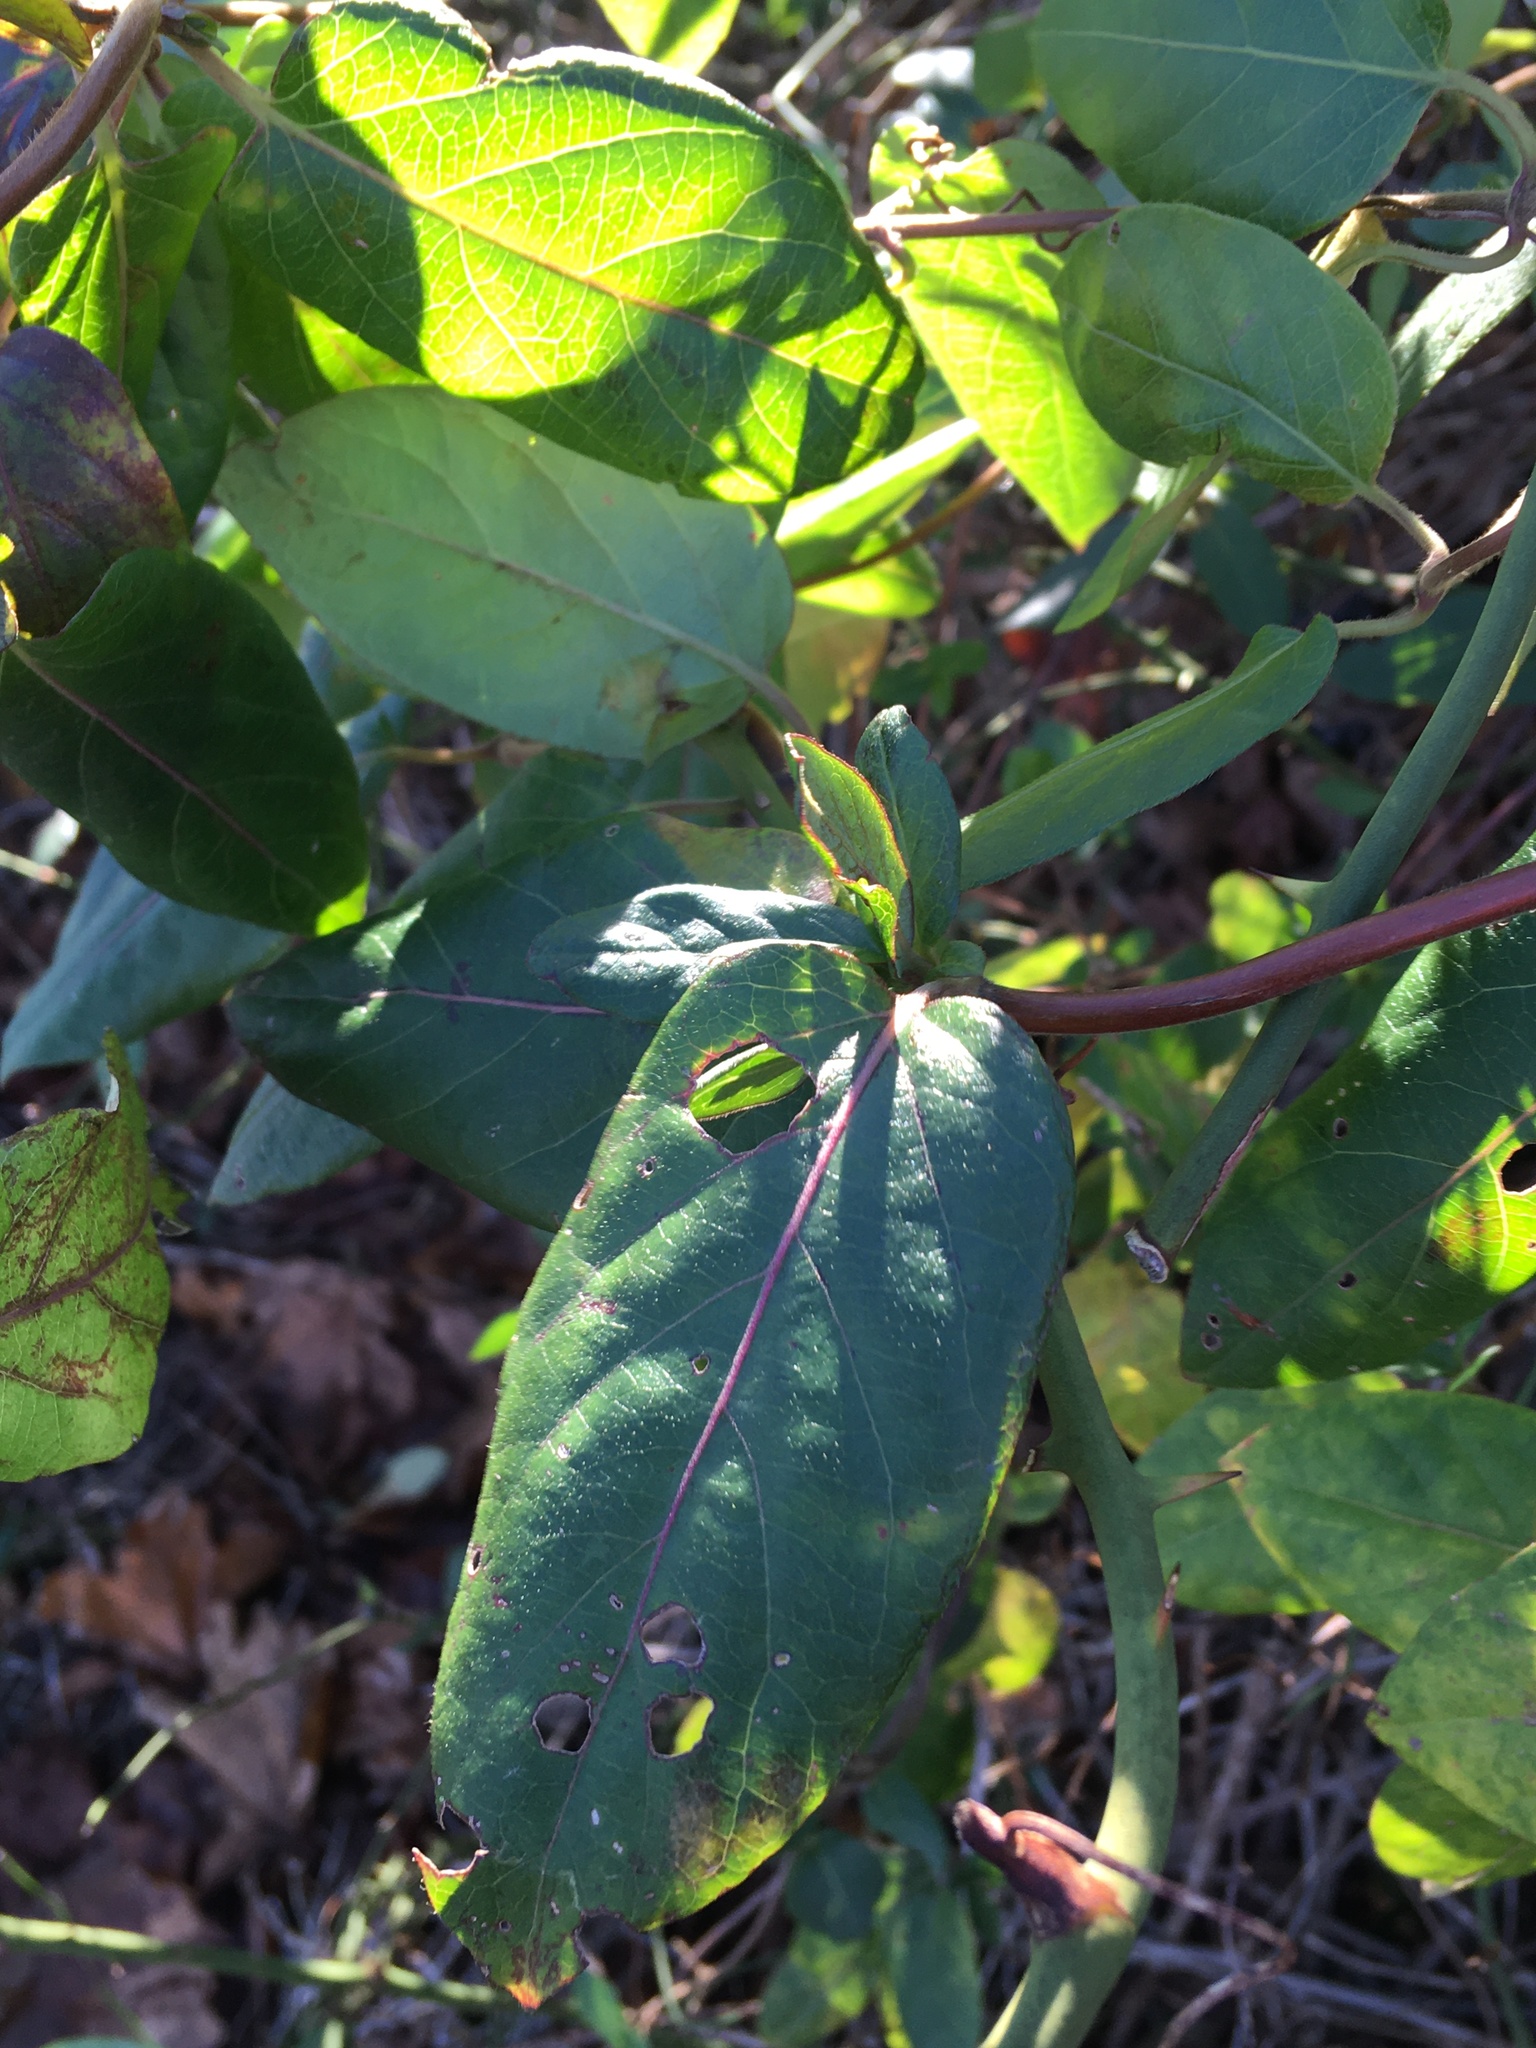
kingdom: Plantae
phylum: Tracheophyta
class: Magnoliopsida
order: Dipsacales
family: Caprifoliaceae
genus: Lonicera
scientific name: Lonicera japonica
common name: Japanese honeysuckle
